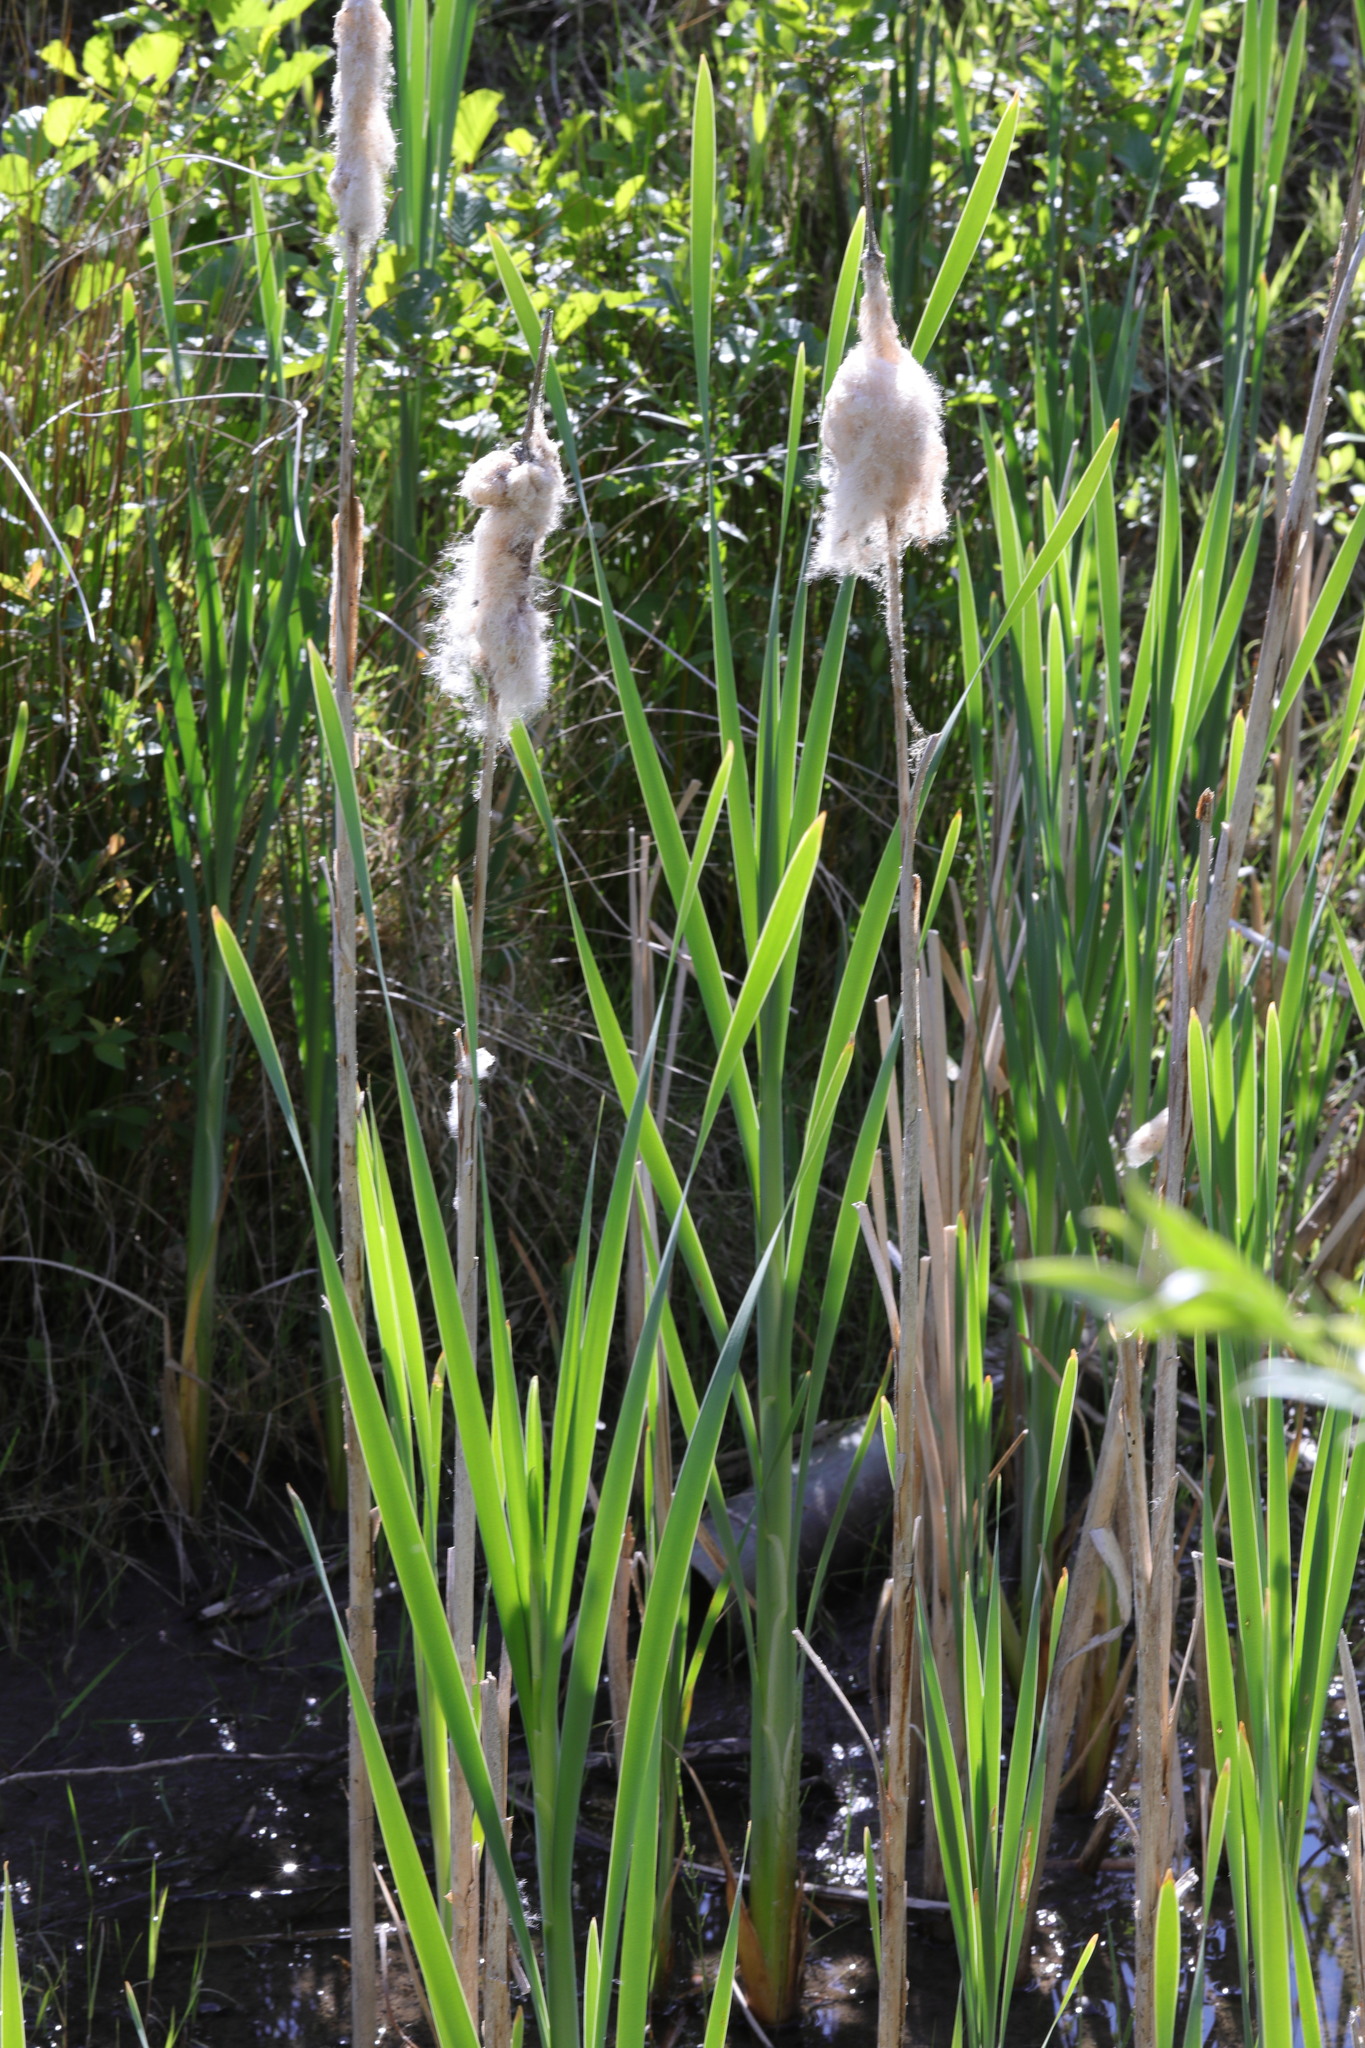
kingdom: Plantae
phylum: Tracheophyta
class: Liliopsida
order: Poales
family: Typhaceae
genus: Typha
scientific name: Typha latifolia
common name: Broadleaf cattail
